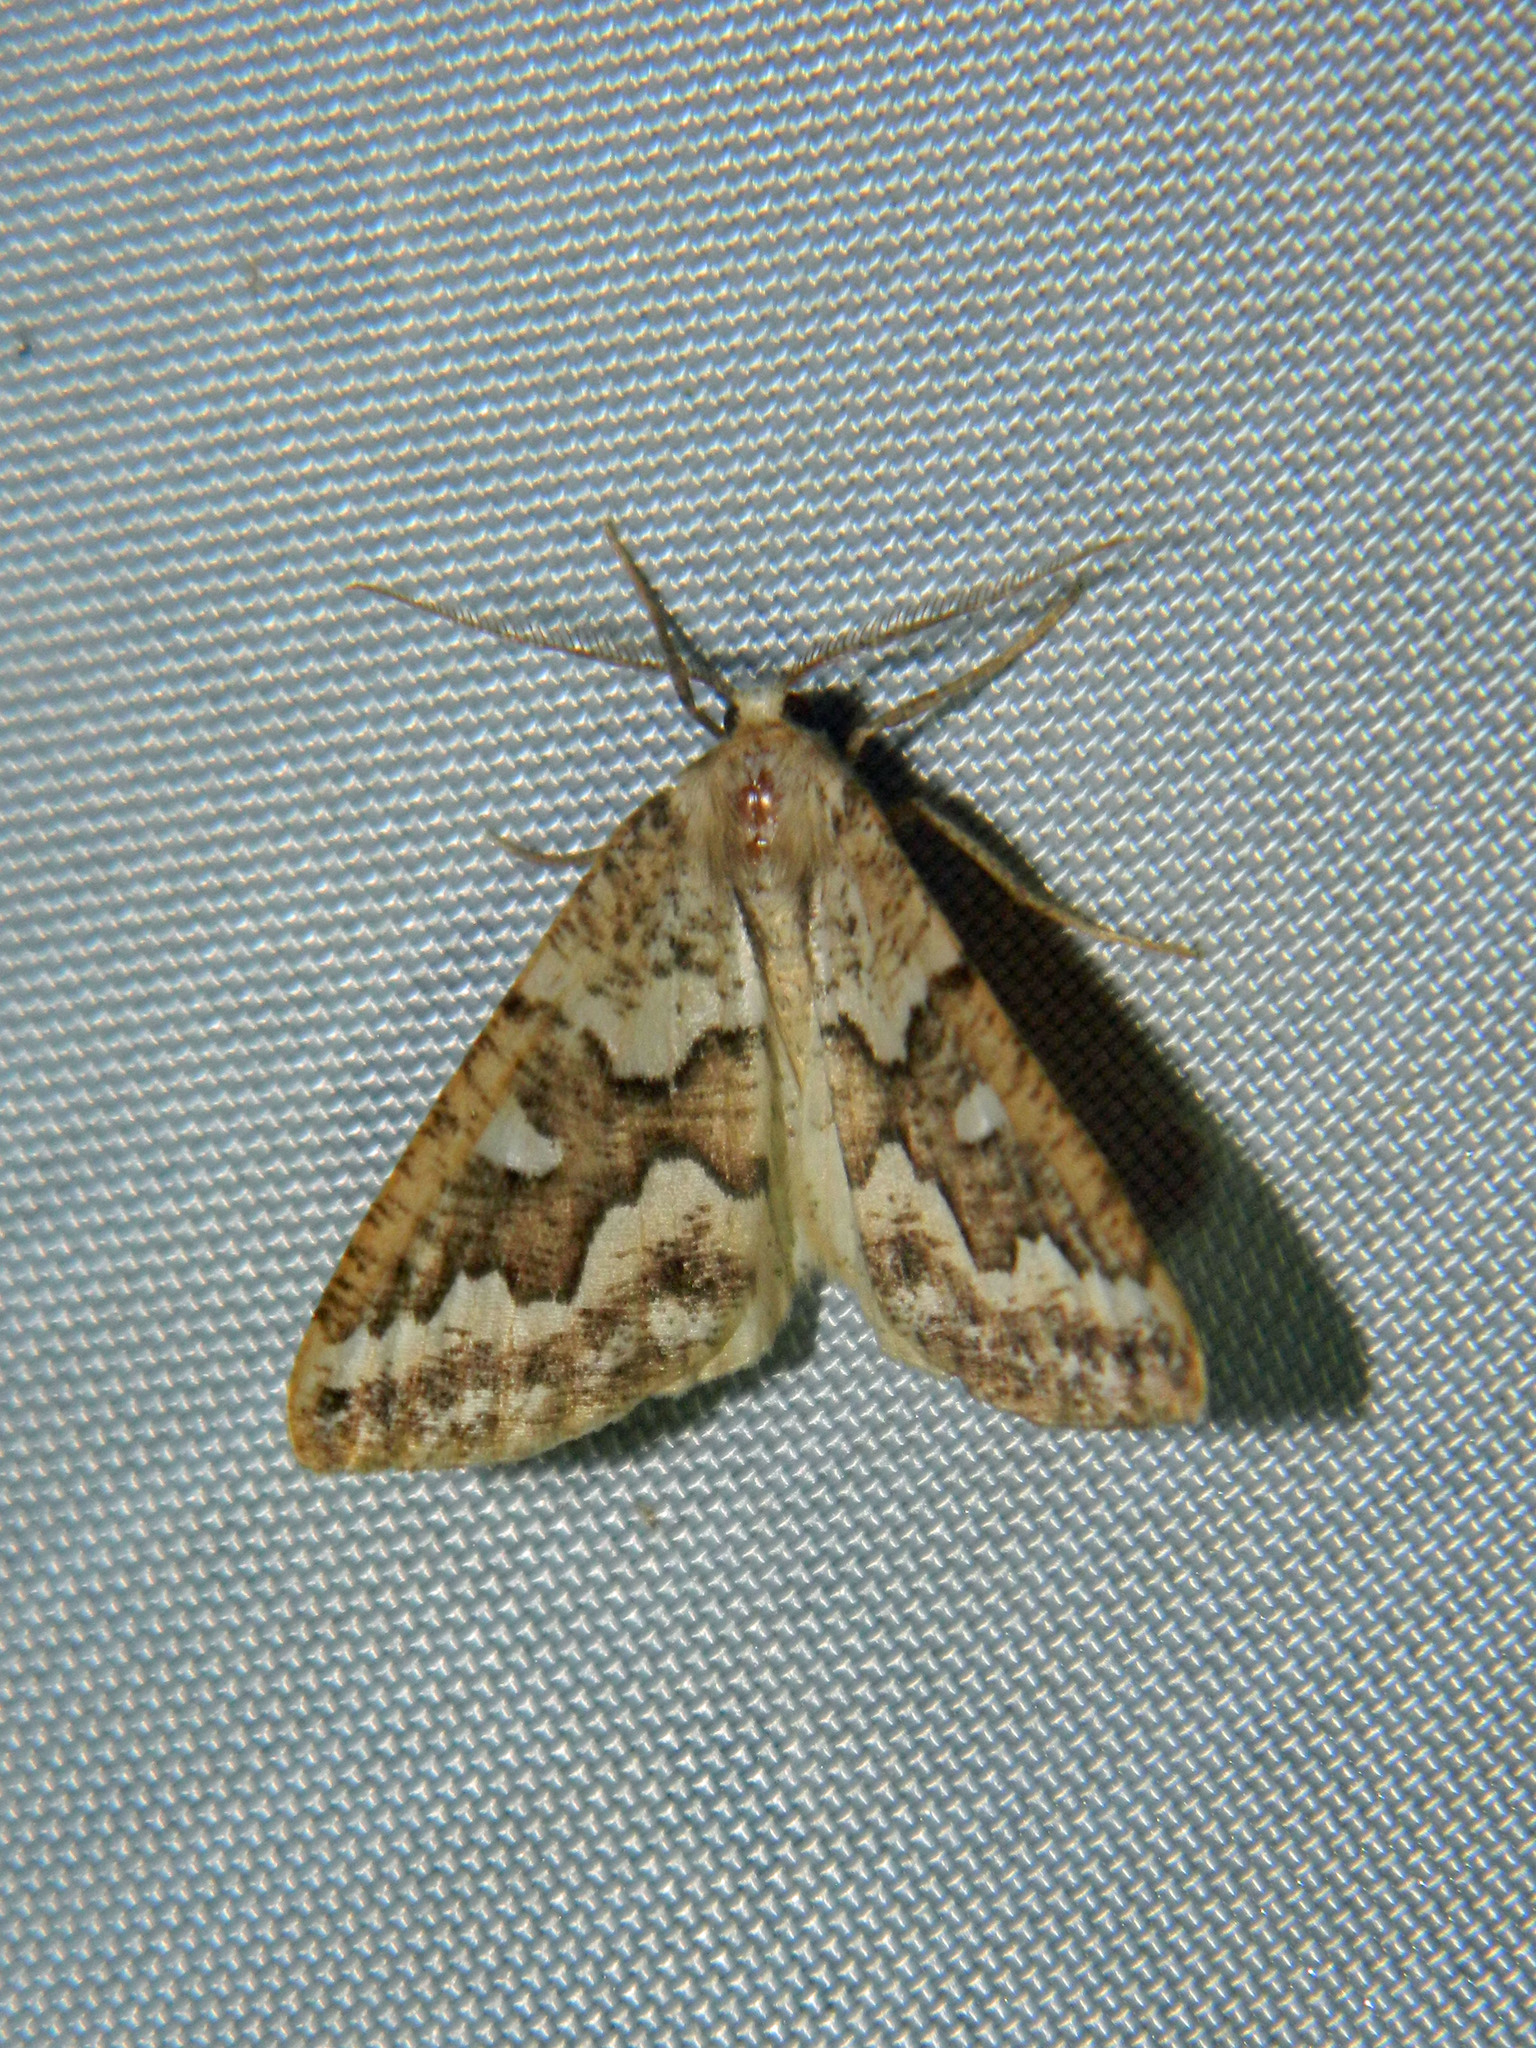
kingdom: Animalia
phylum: Arthropoda
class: Insecta
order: Lepidoptera
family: Geometridae
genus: Caripeta
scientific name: Caripeta divisata
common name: Gray spruce looper
